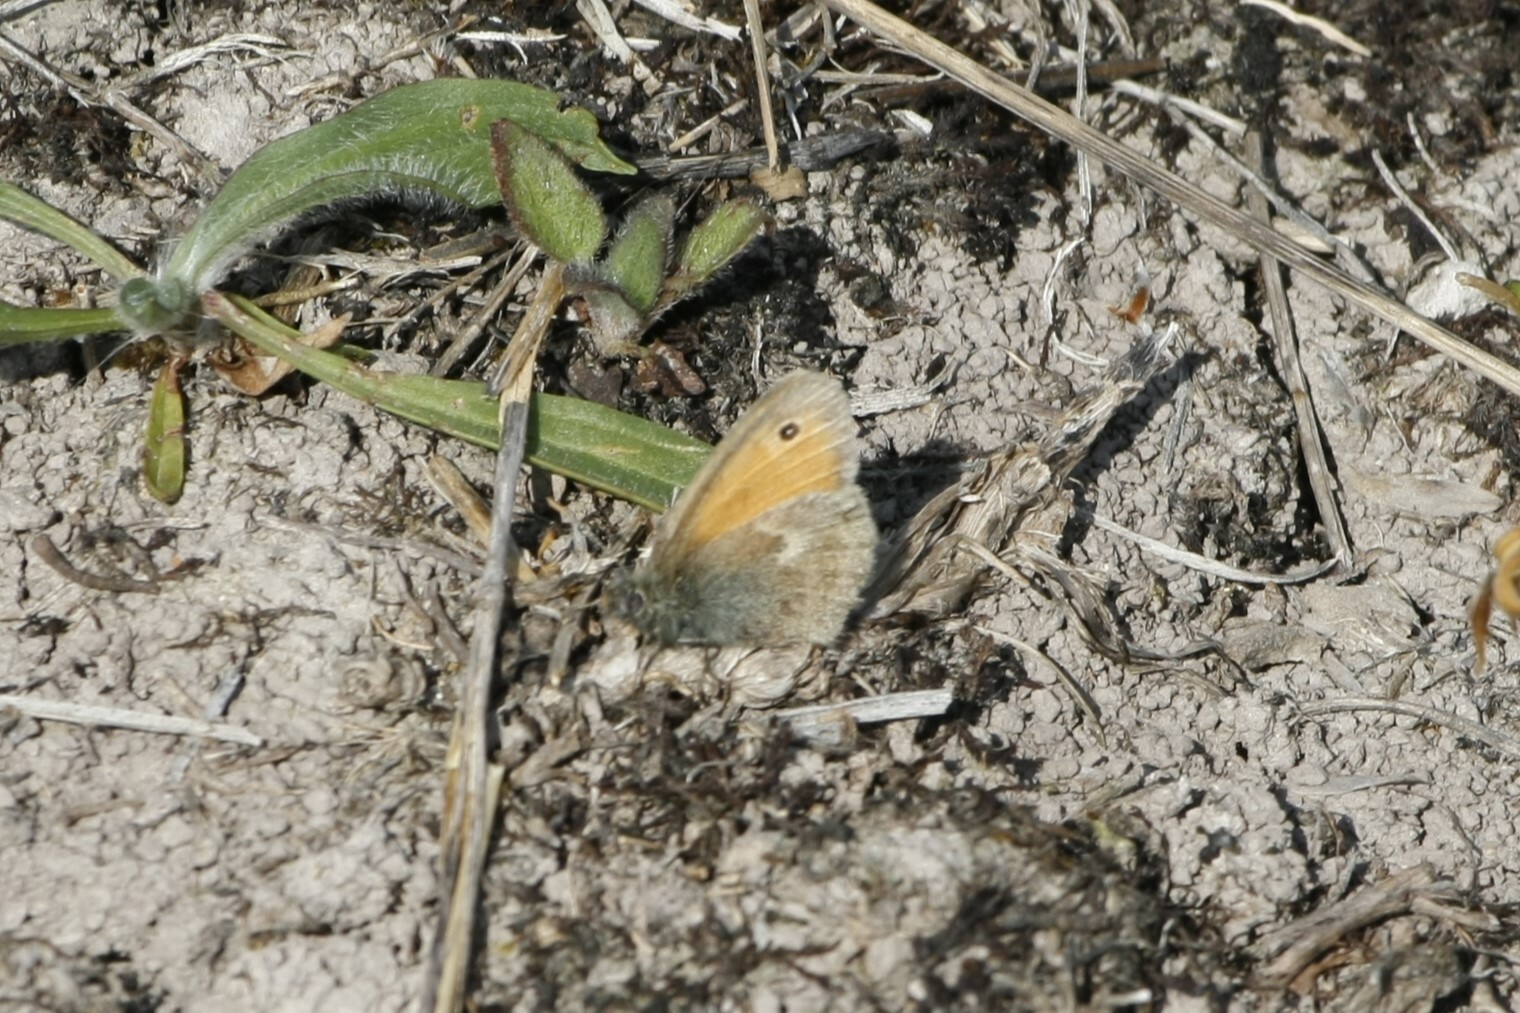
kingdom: Animalia
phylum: Arthropoda
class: Insecta
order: Lepidoptera
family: Nymphalidae
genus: Coenonympha
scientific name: Coenonympha pamphilus
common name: Small heath
